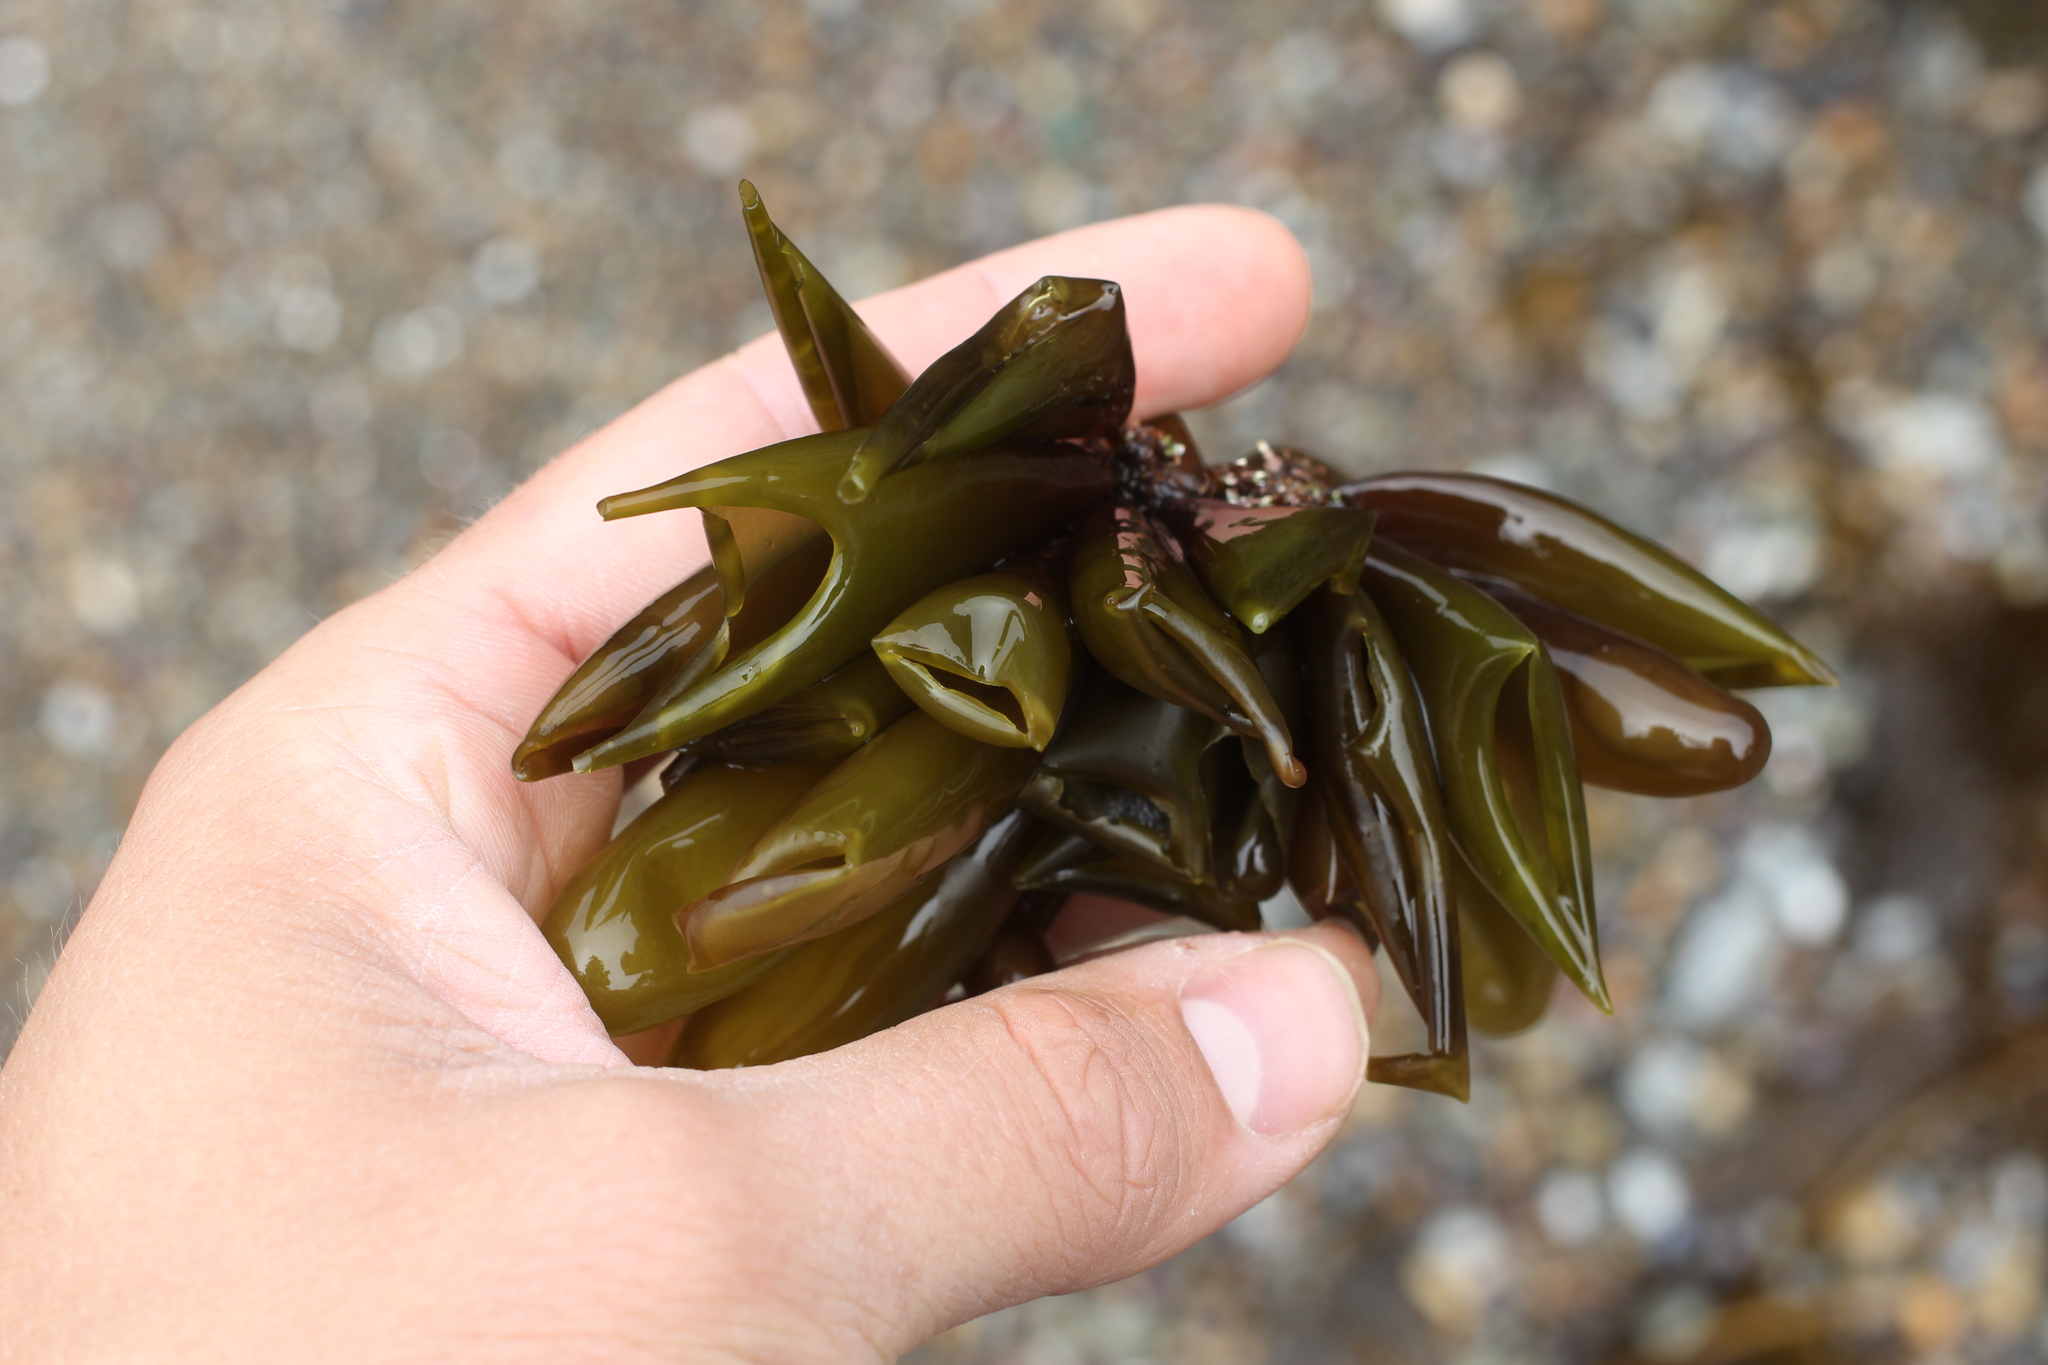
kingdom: Plantae
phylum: Rhodophyta
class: Florideophyceae
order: Palmariales
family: Palmariaceae
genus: Halosaccion
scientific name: Halosaccion glandiforme
